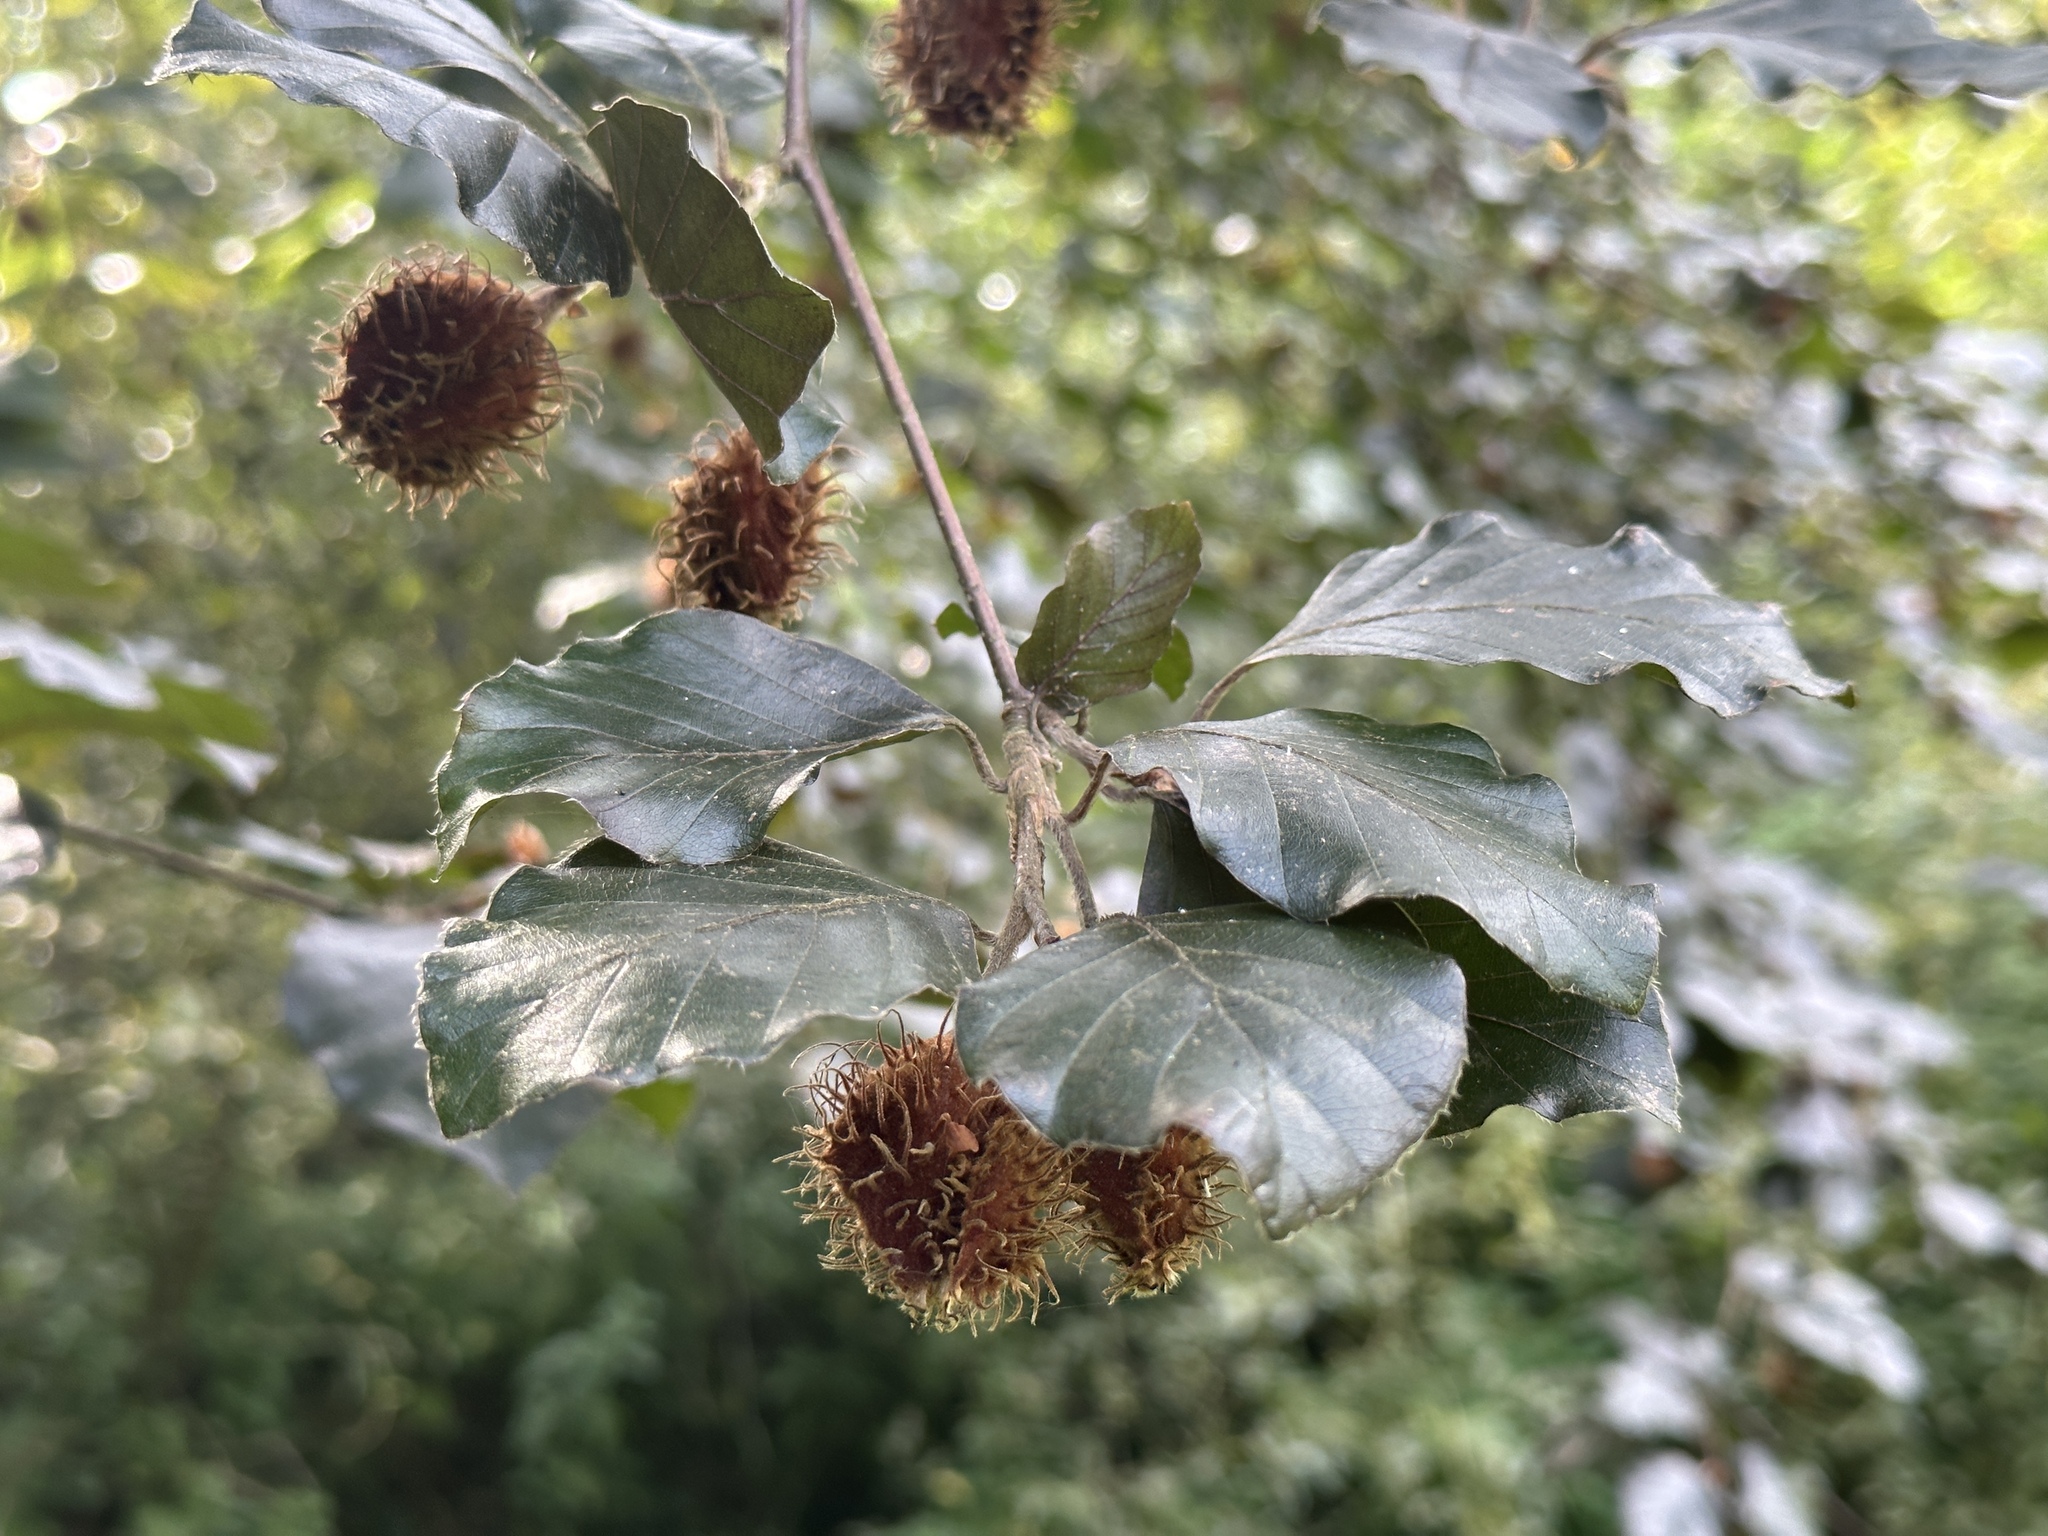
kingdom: Plantae
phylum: Tracheophyta
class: Magnoliopsida
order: Fagales
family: Fagaceae
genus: Fagus
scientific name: Fagus sylvatica
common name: Beech
